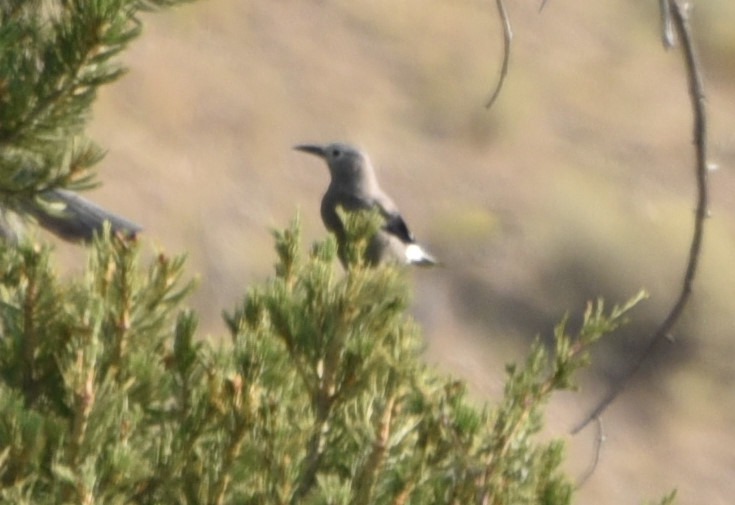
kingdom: Animalia
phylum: Chordata
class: Aves
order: Passeriformes
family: Corvidae
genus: Nucifraga
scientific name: Nucifraga columbiana
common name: Clark's nutcracker
